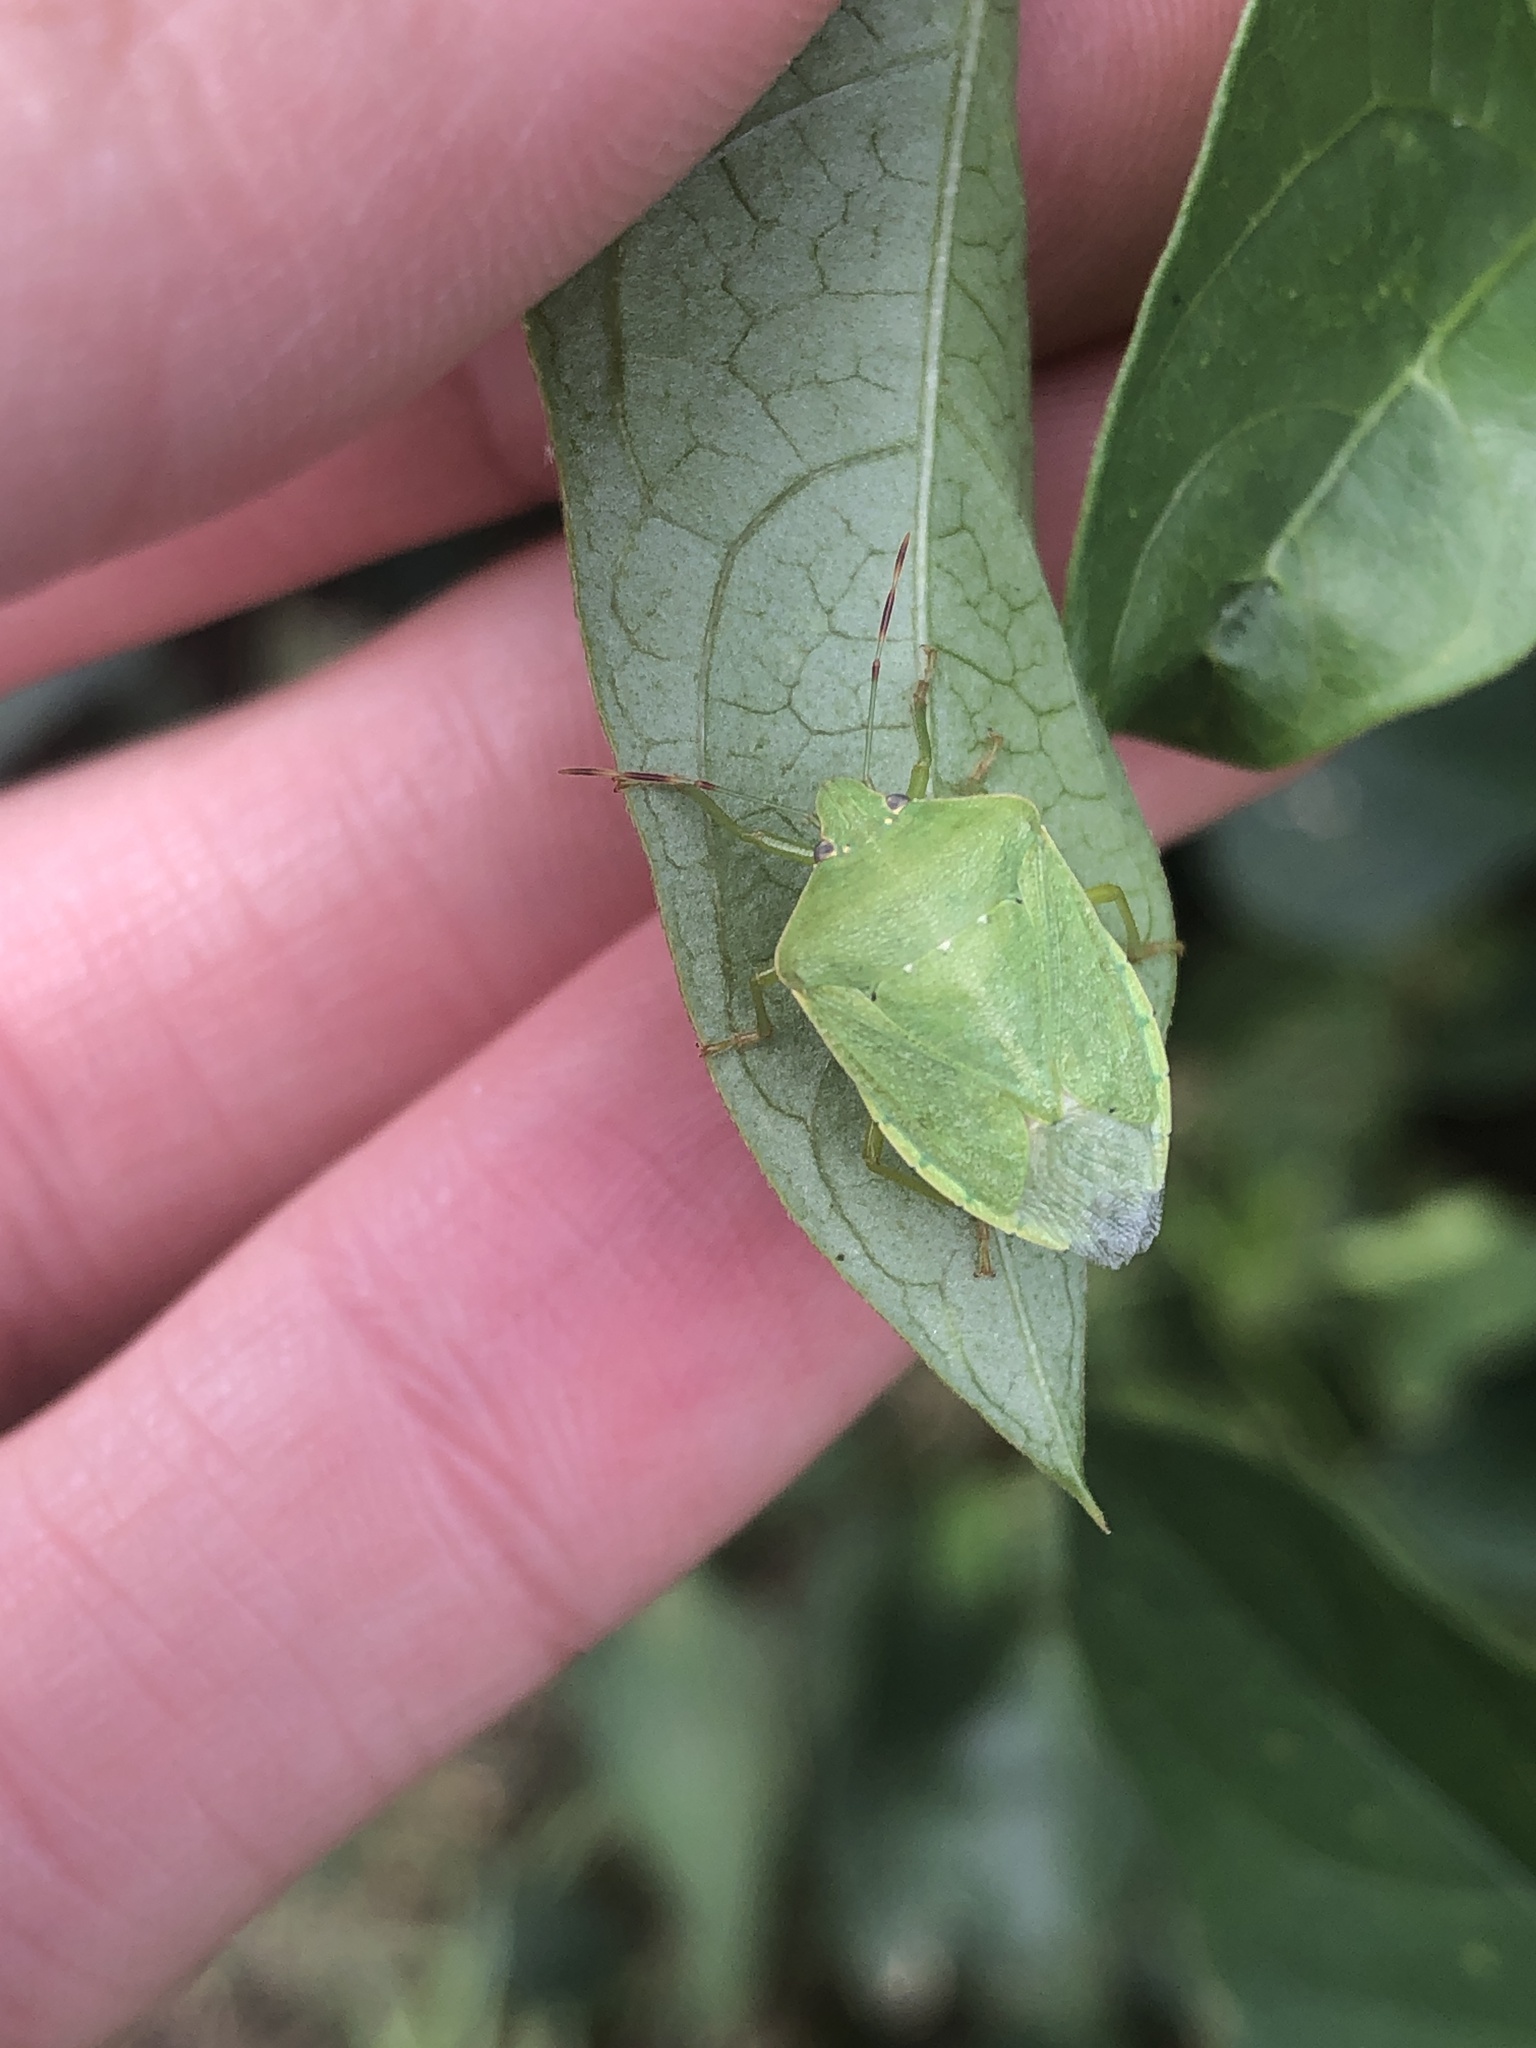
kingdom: Animalia
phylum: Arthropoda
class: Insecta
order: Hemiptera
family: Pentatomidae
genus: Nezara
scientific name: Nezara viridula
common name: Southern green stink bug
